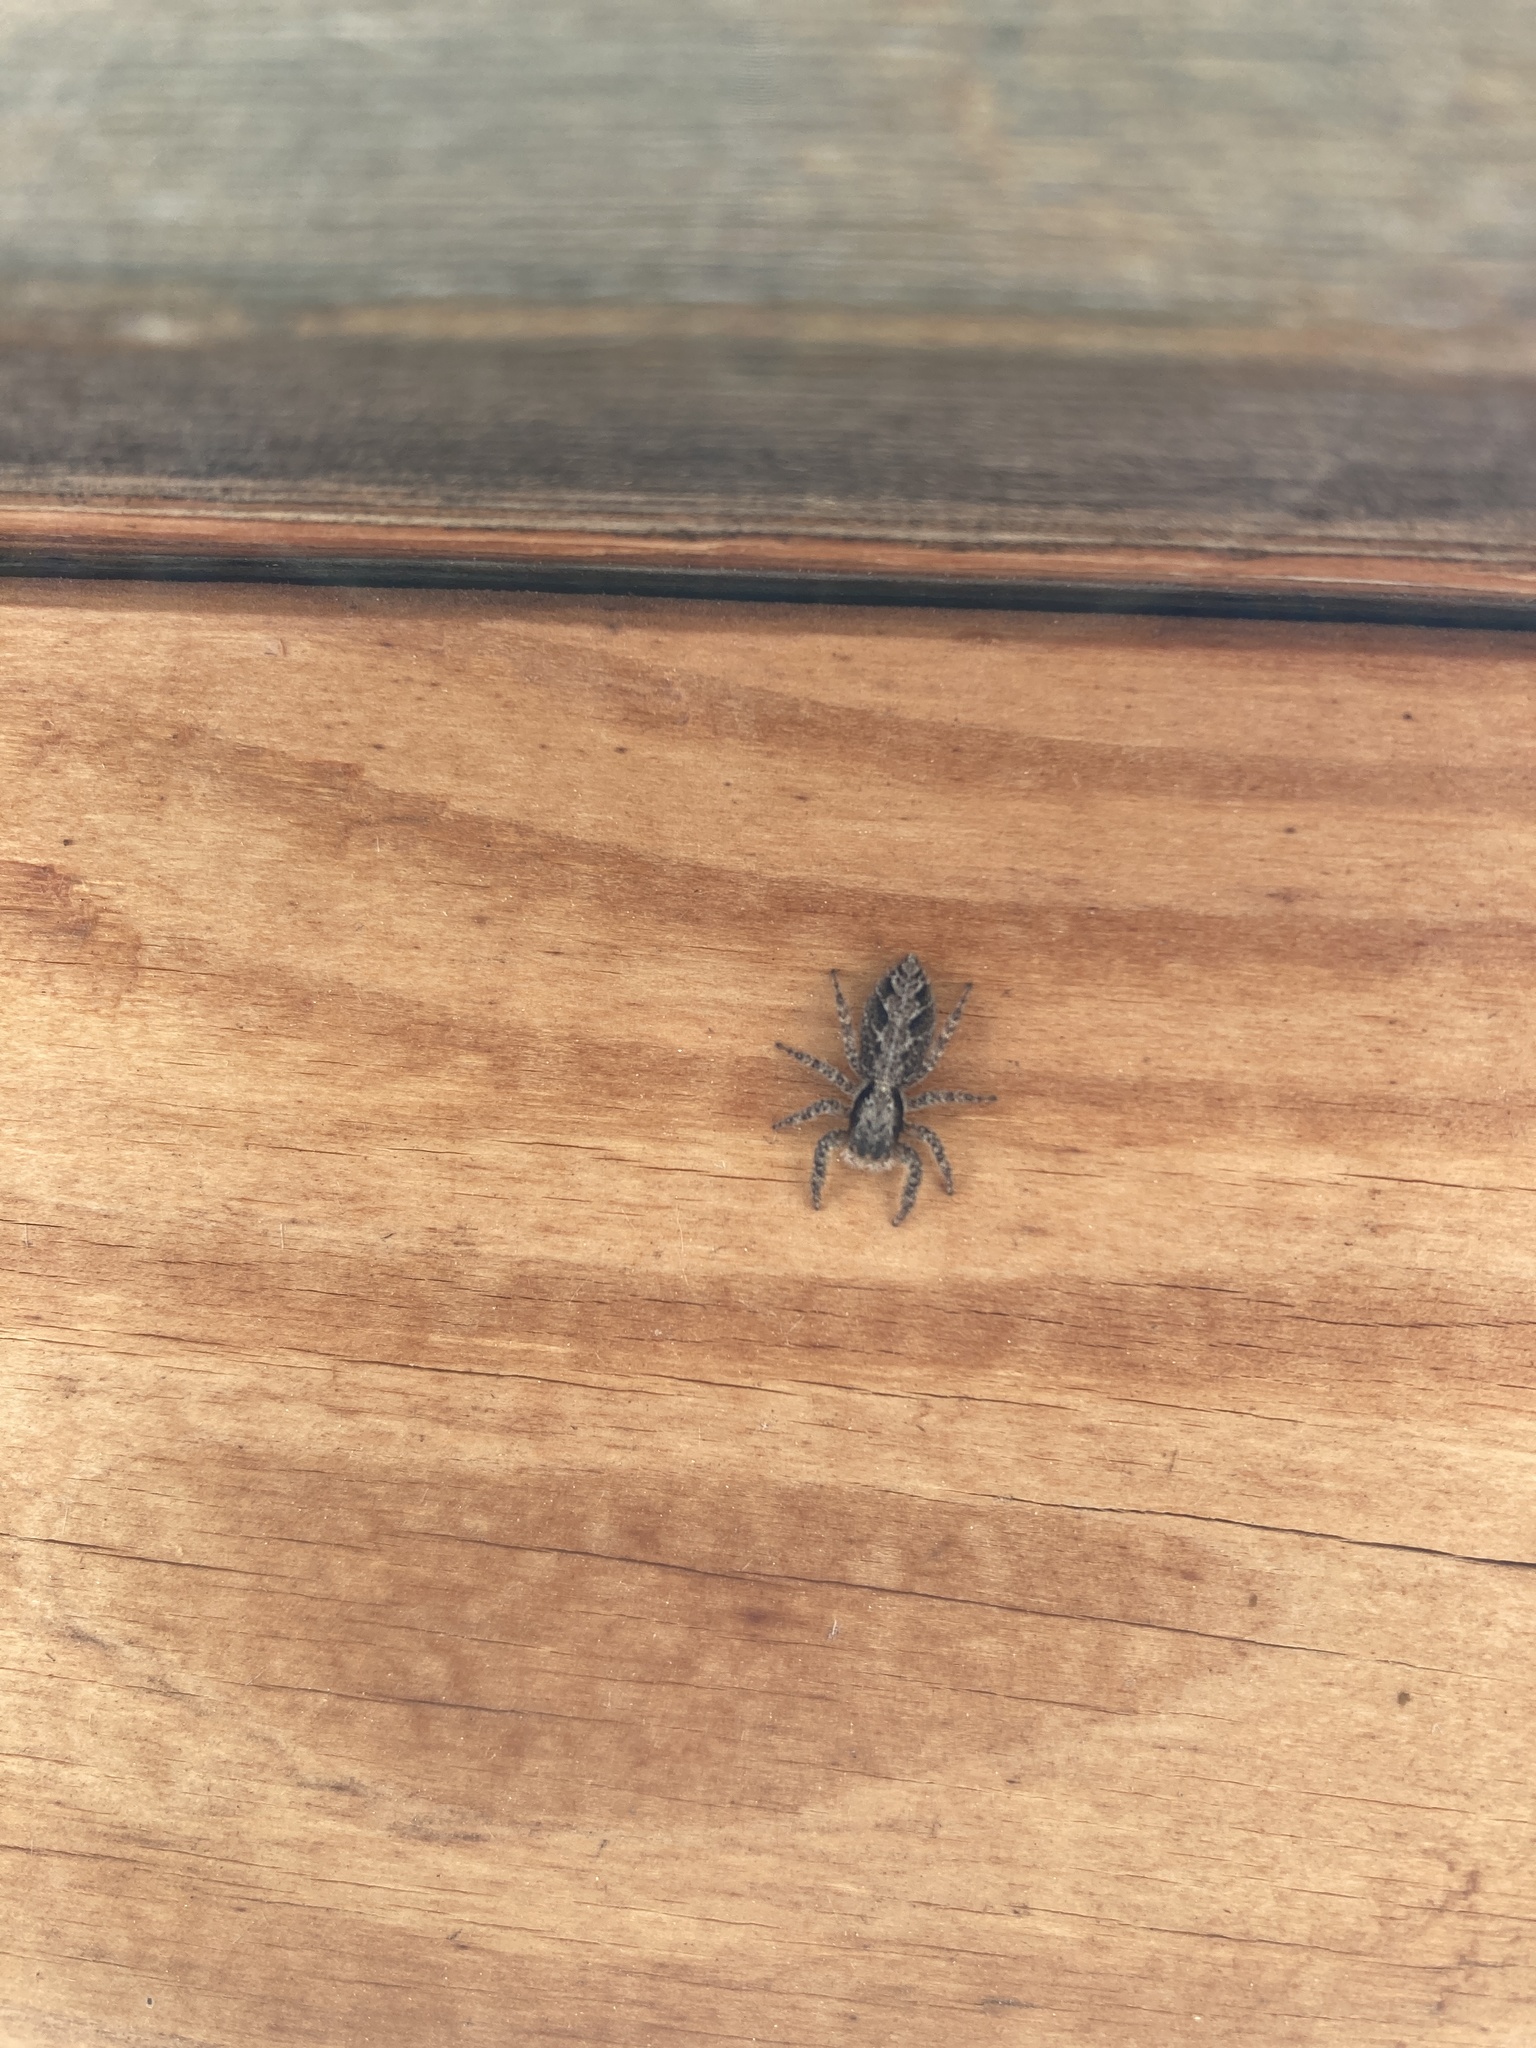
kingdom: Animalia
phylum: Arthropoda
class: Arachnida
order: Araneae
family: Salticidae
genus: Platycryptus
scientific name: Platycryptus californicus
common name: Jumping spiders
